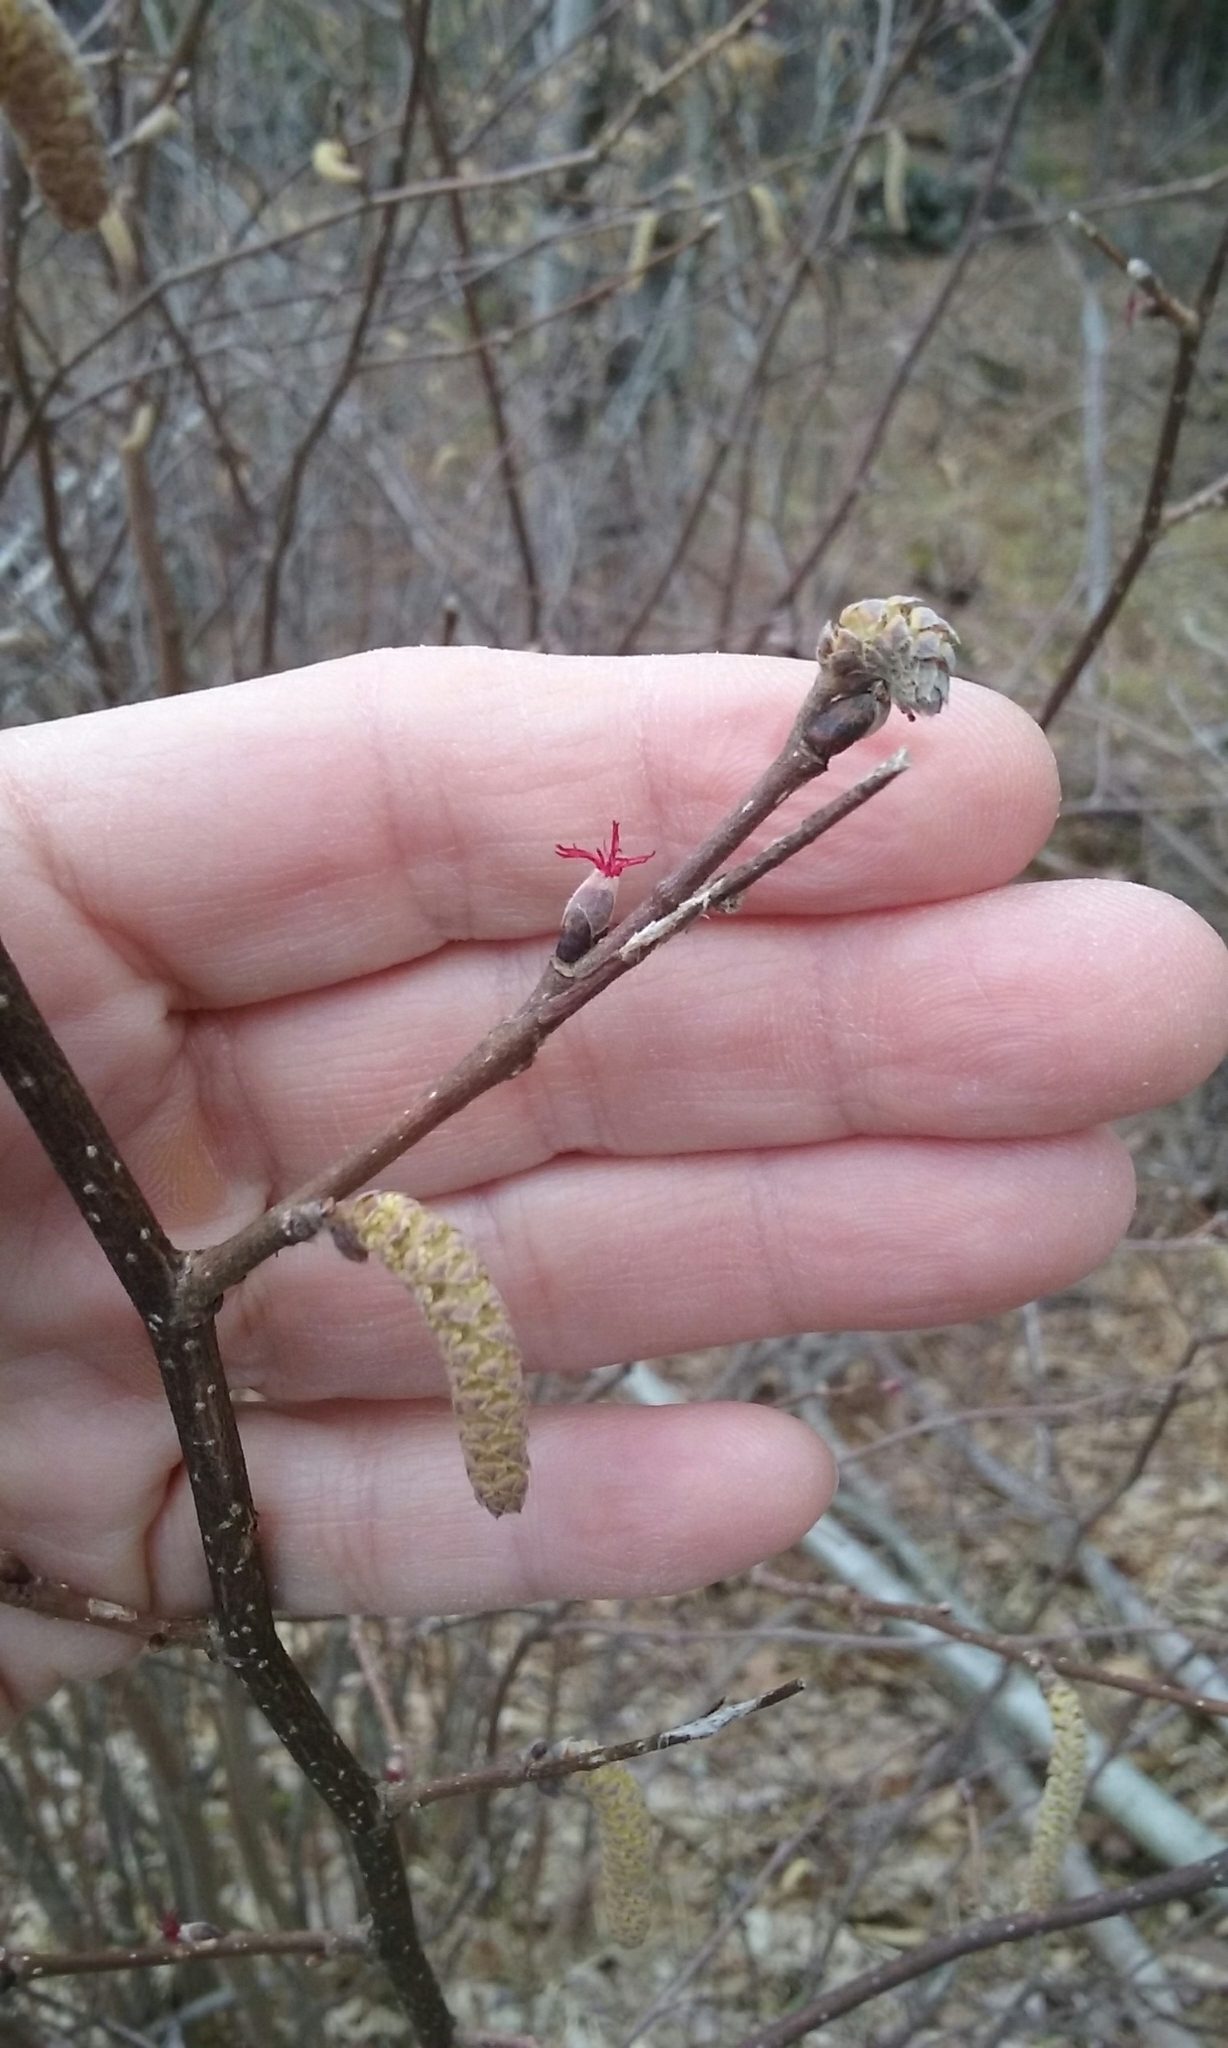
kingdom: Plantae
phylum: Tracheophyta
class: Magnoliopsida
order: Fagales
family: Betulaceae
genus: Corylus
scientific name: Corylus cornuta
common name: Beaked hazel
